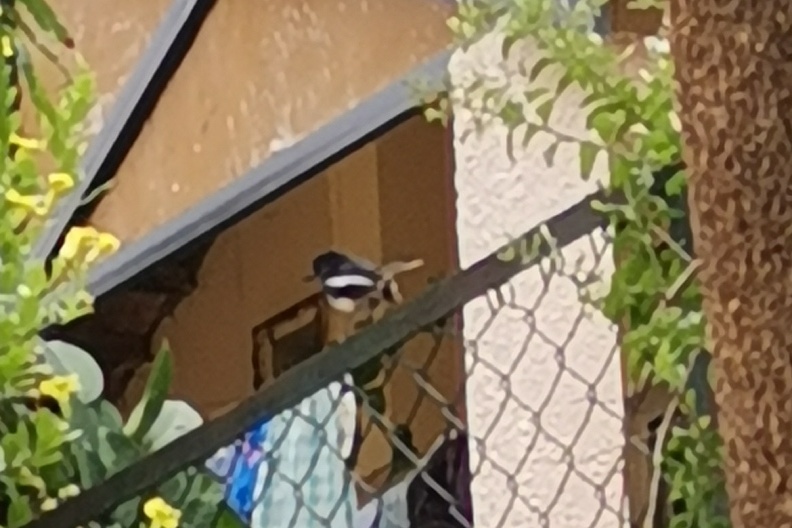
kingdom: Animalia
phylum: Chordata
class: Aves
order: Passeriformes
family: Muscicapidae
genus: Copsychus
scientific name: Copsychus saularis
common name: Oriental magpie-robin
